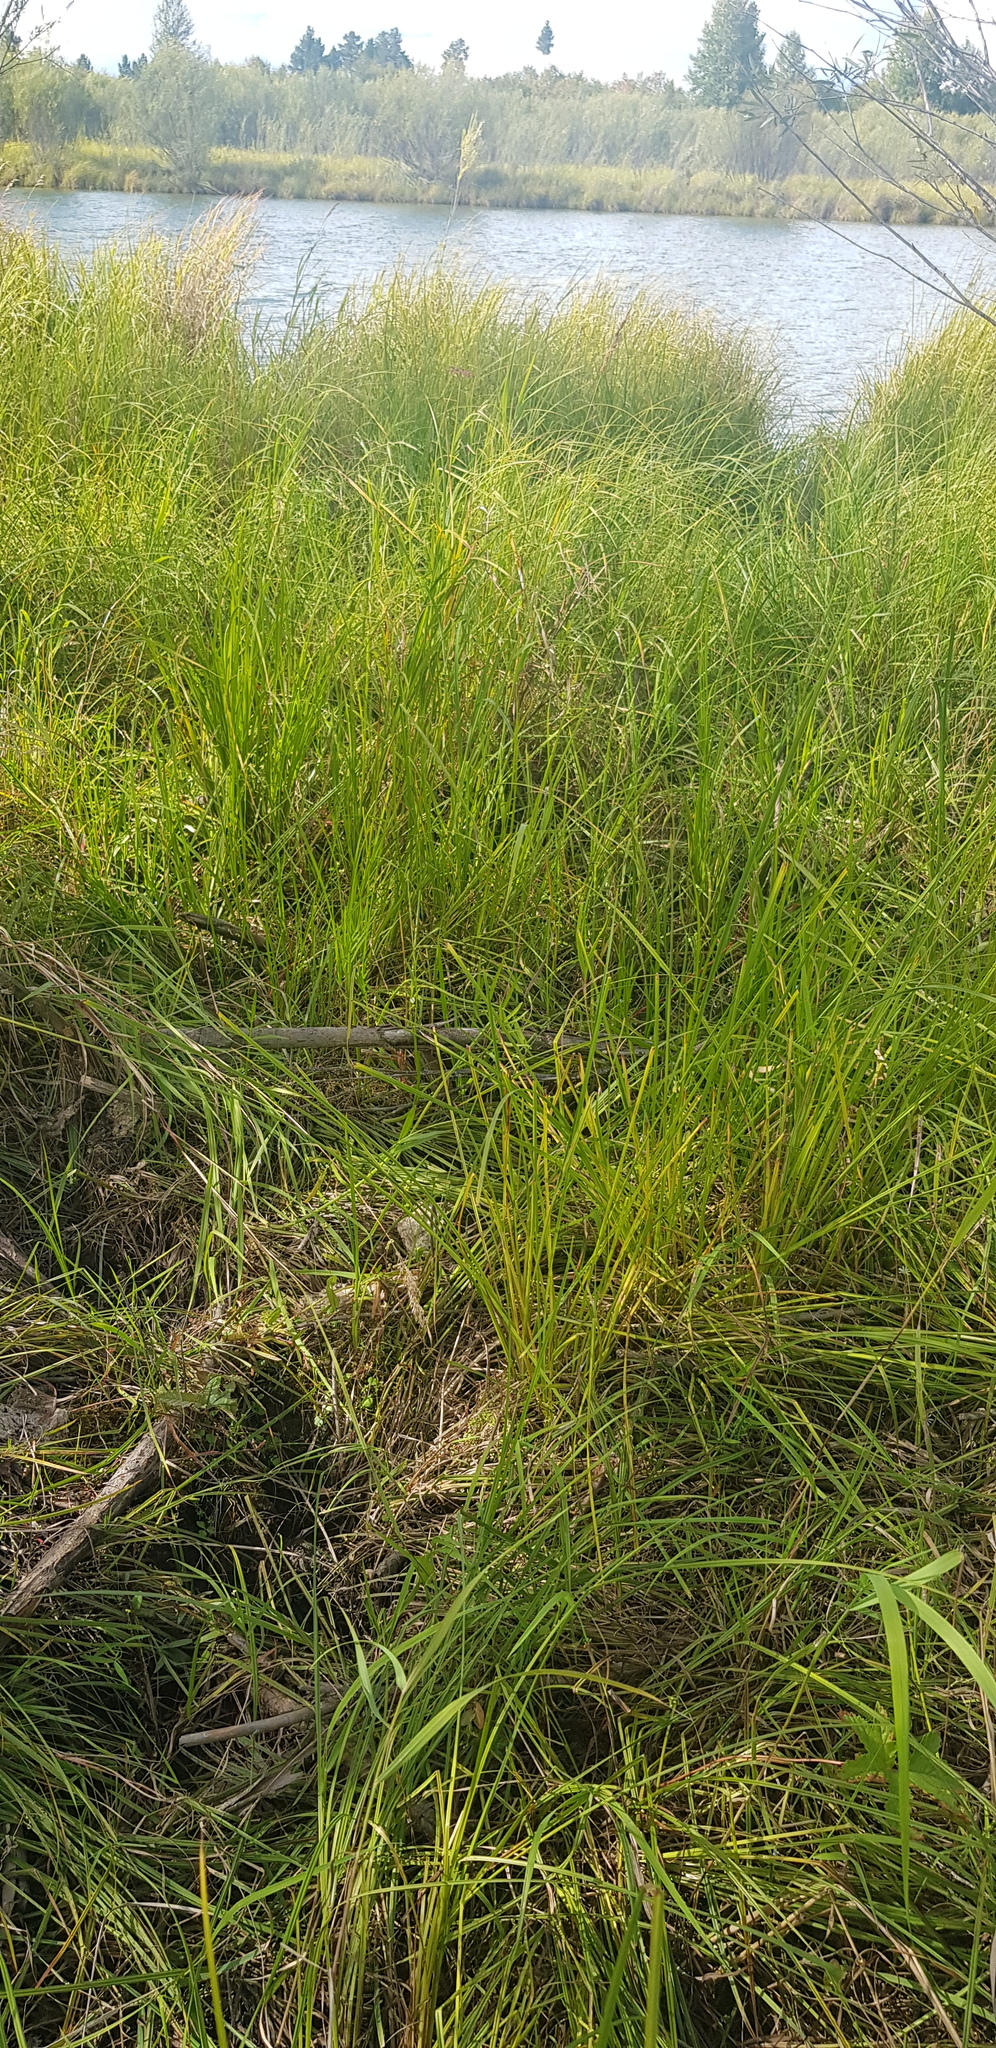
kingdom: Plantae
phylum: Tracheophyta
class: Liliopsida
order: Poales
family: Poaceae
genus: Beckmannia
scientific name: Beckmannia syzigachne
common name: American slough-grass
